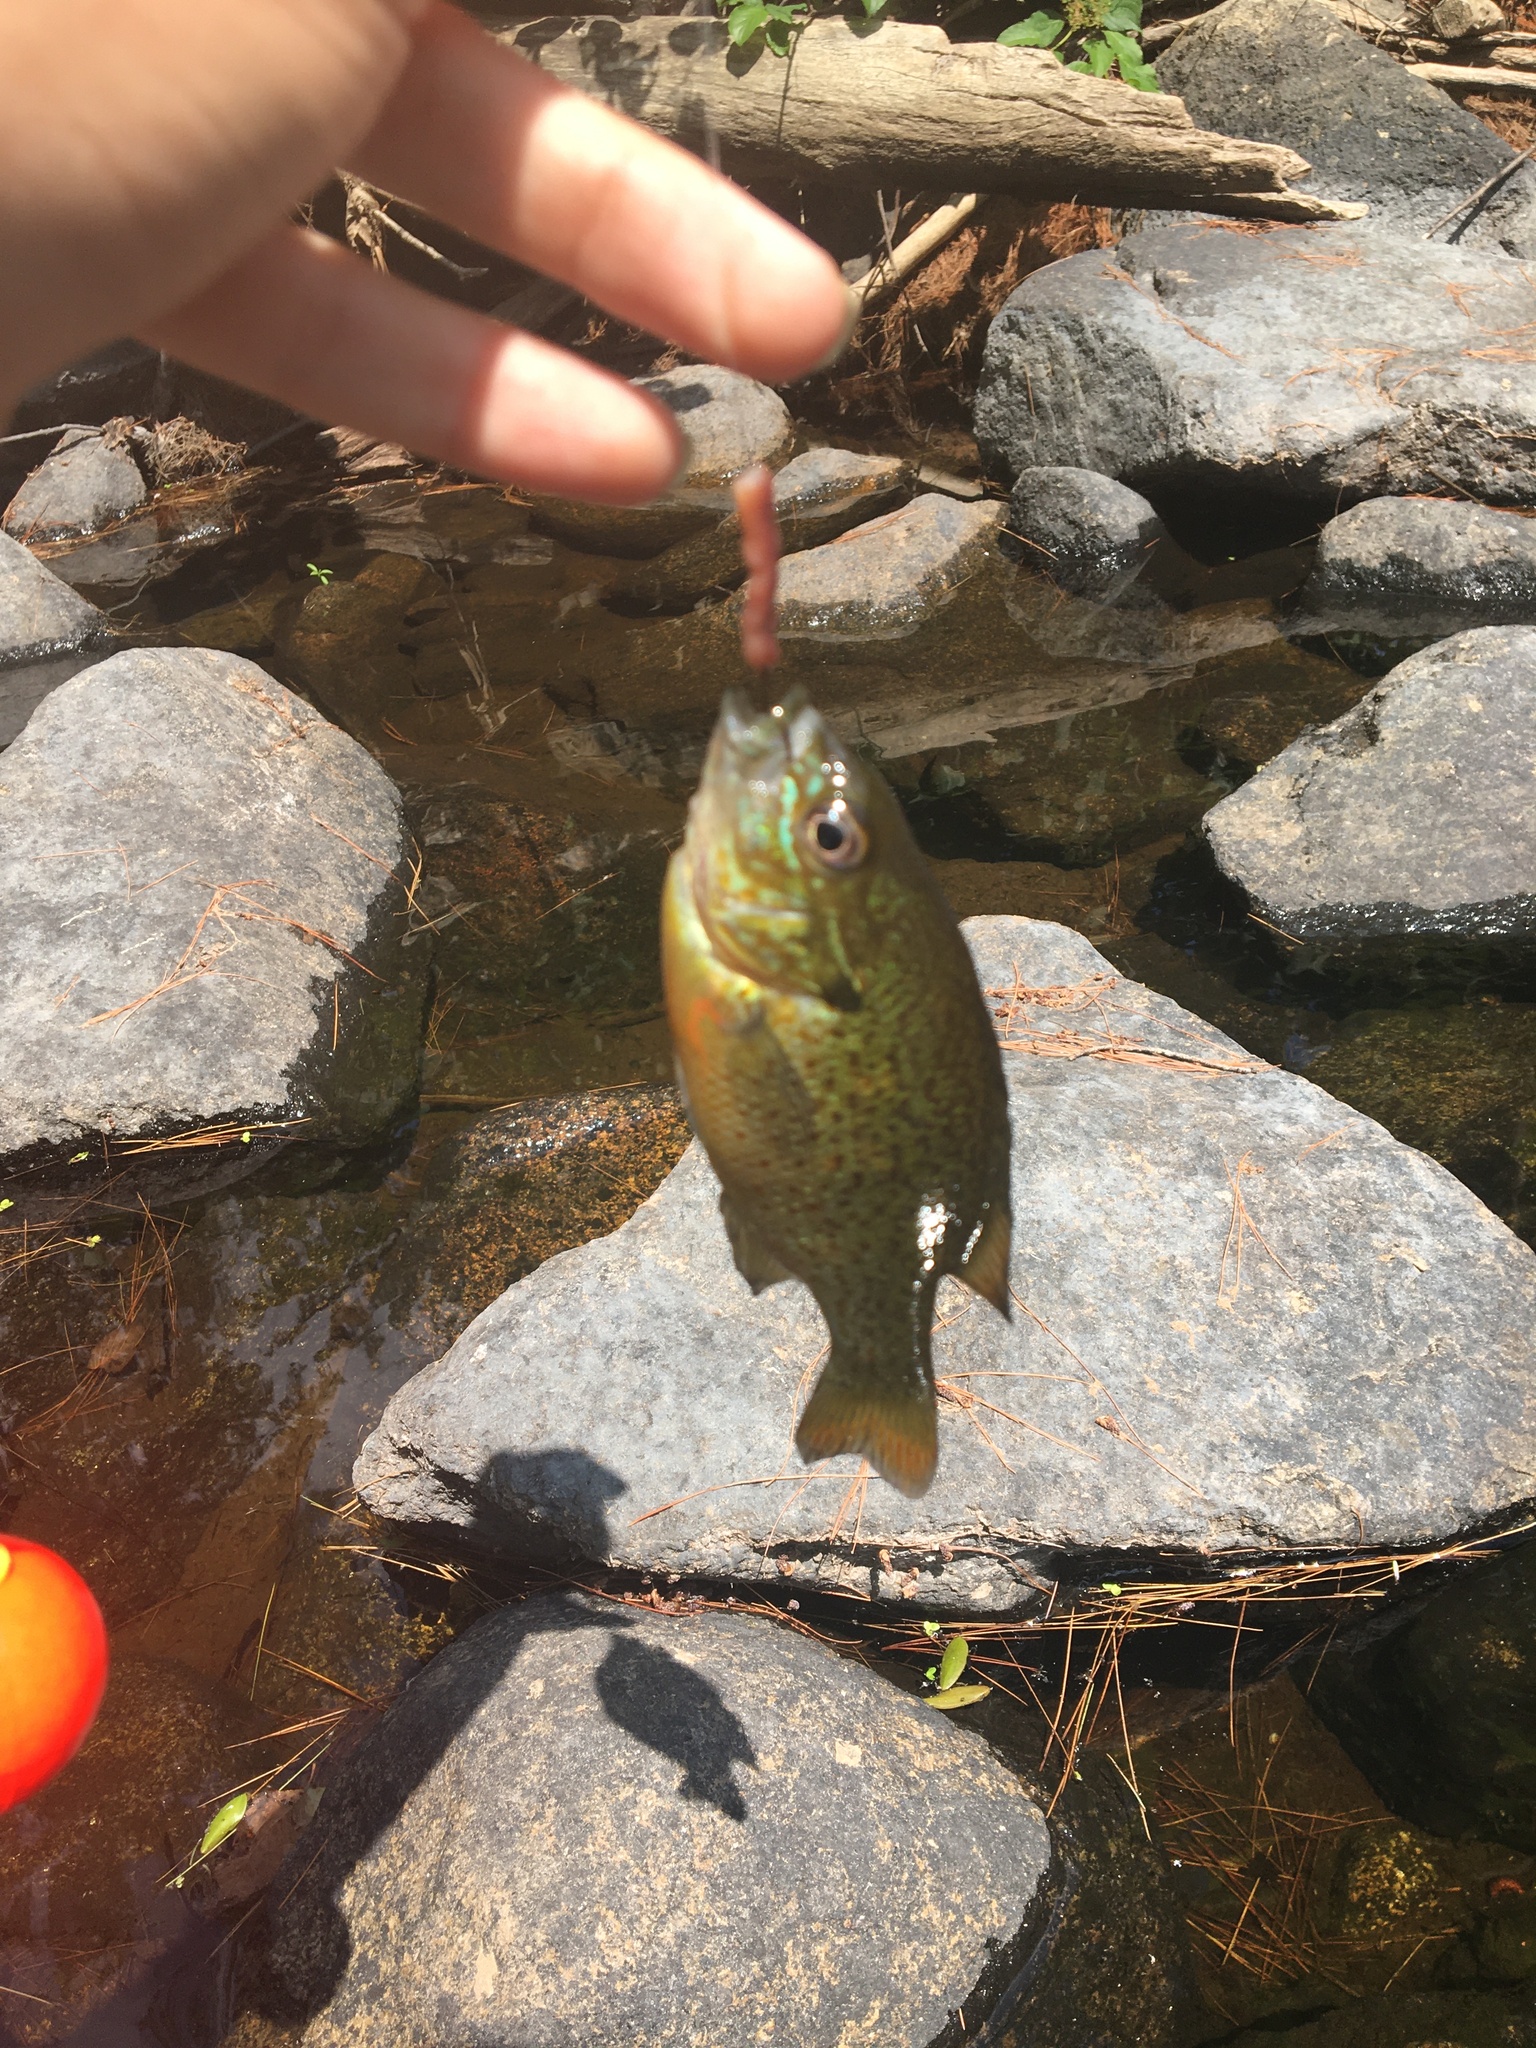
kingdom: Animalia
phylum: Chordata
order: Perciformes
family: Centrarchidae
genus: Lepomis
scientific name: Lepomis auritus
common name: Redbreast sunfish
